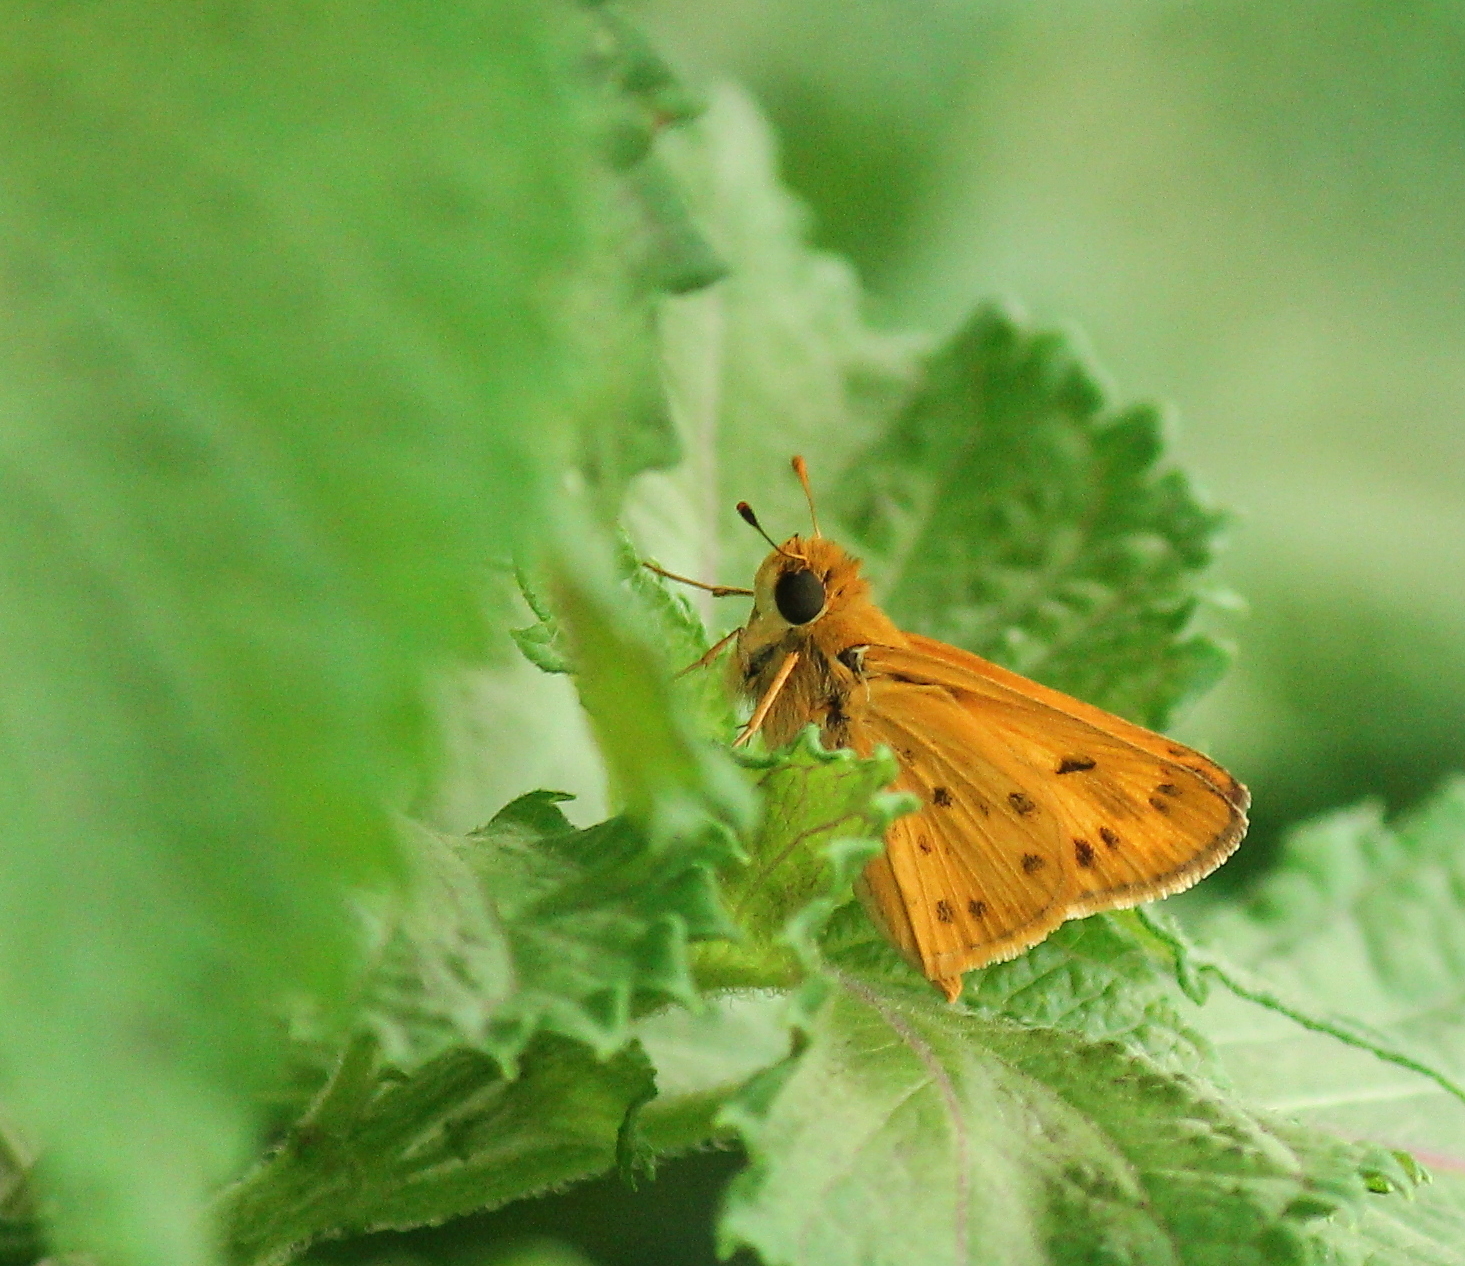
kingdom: Animalia
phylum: Arthropoda
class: Insecta
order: Lepidoptera
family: Hesperiidae
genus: Hylephila
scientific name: Hylephila phyleus
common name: Fiery skipper
